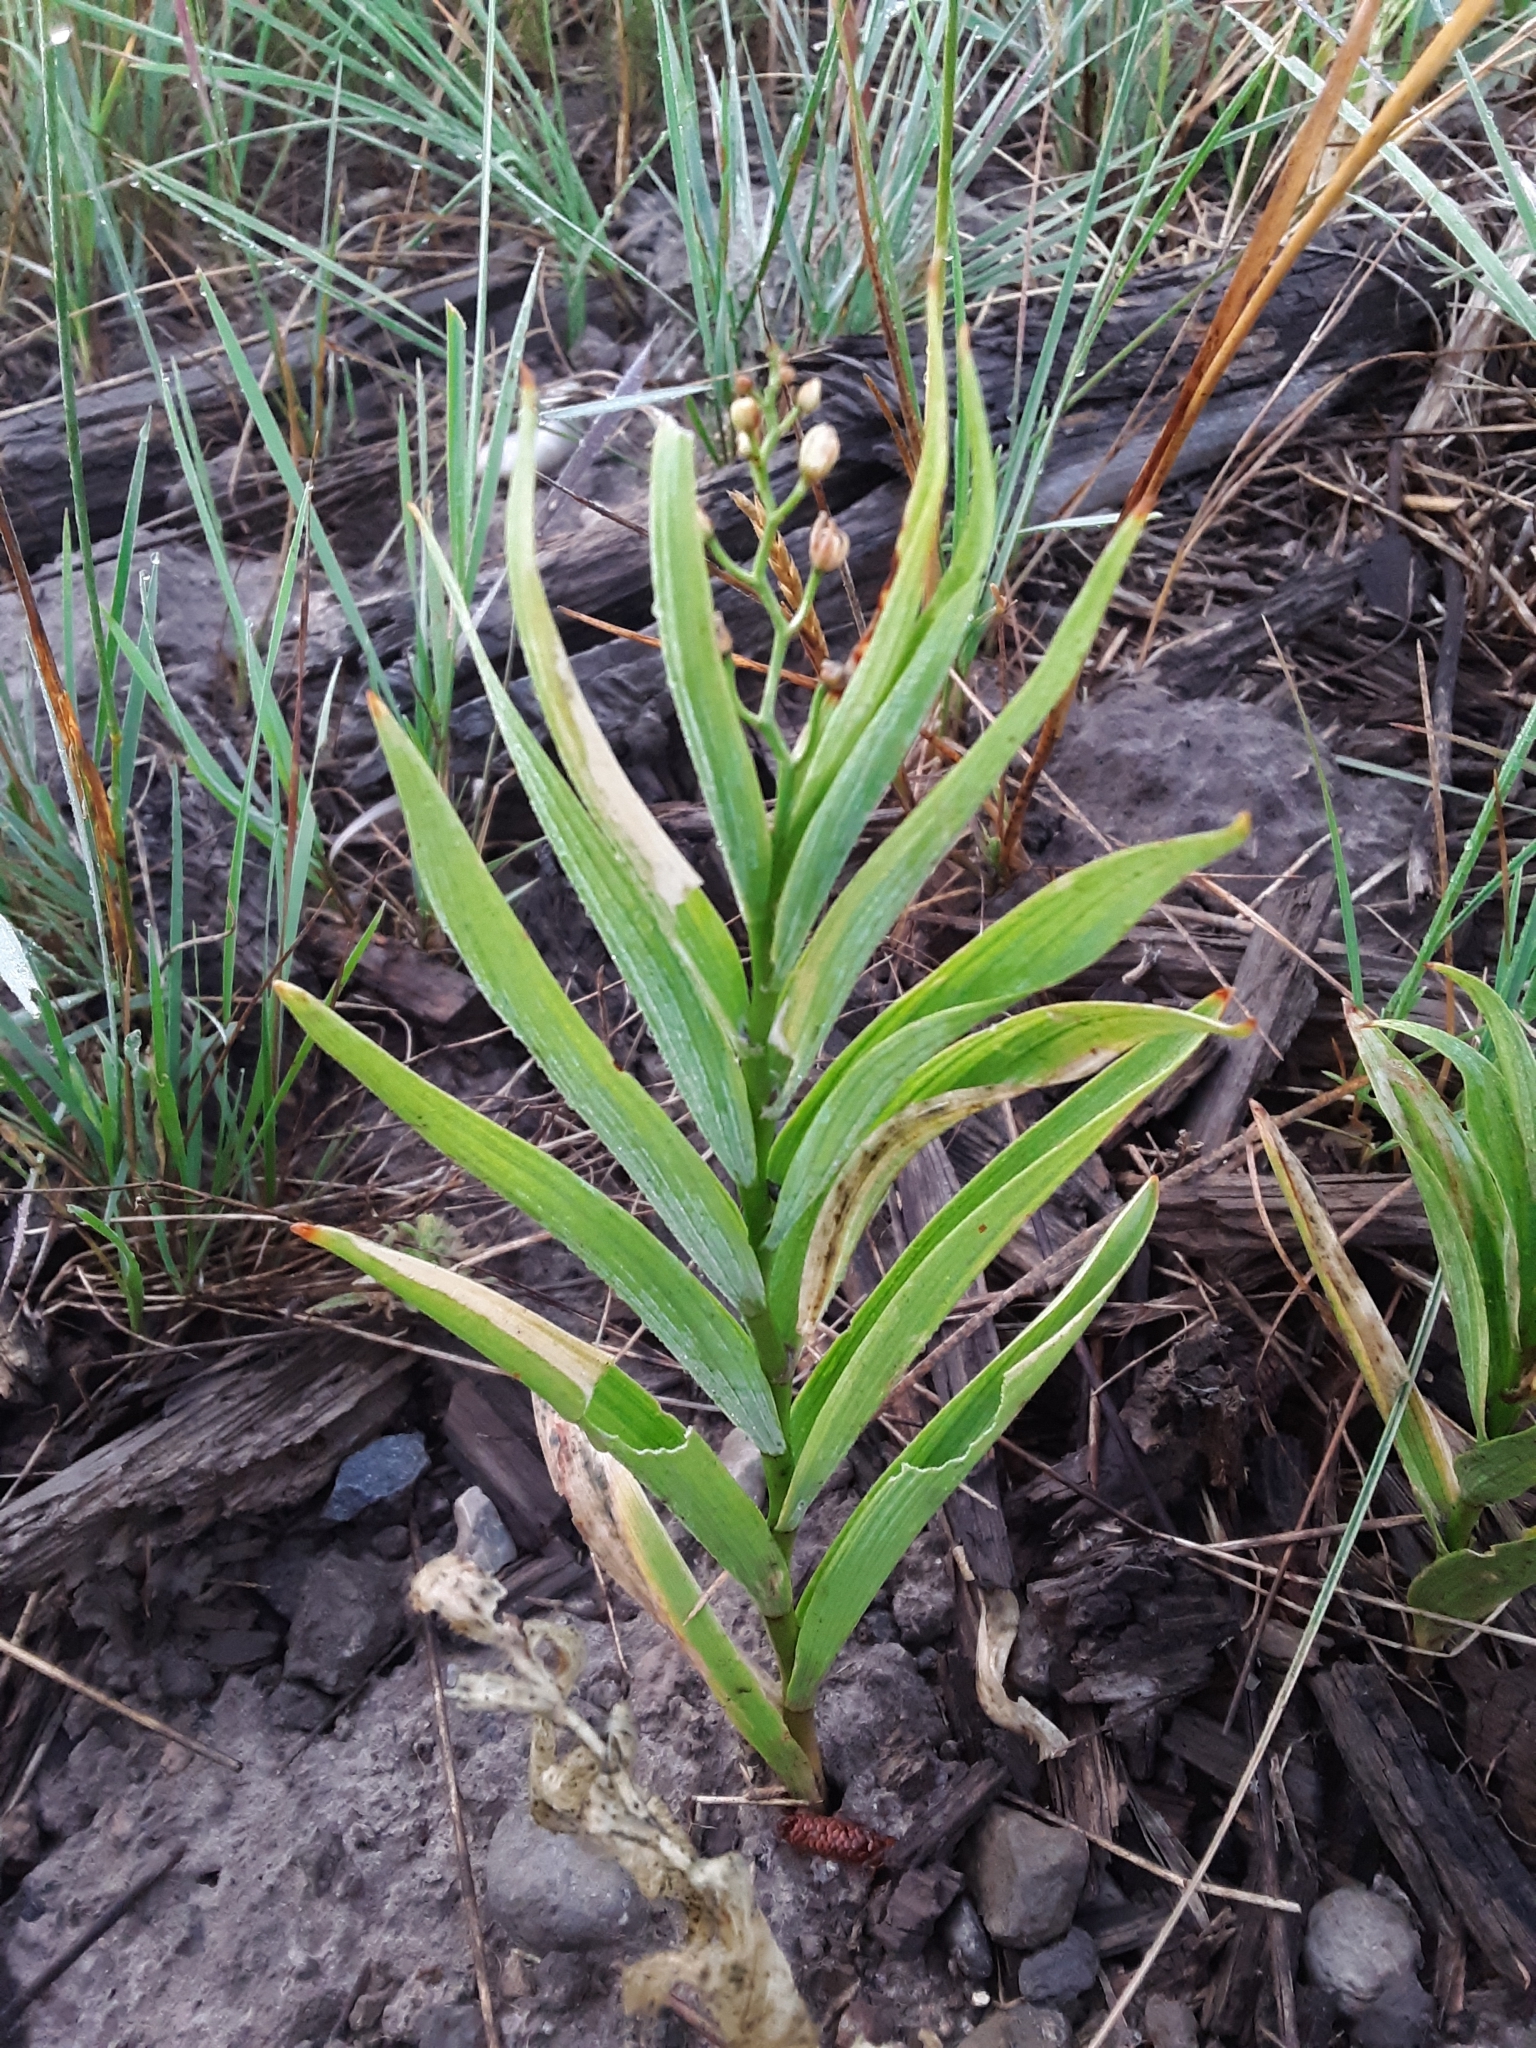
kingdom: Plantae
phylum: Tracheophyta
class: Liliopsida
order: Asparagales
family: Asparagaceae
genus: Maianthemum
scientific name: Maianthemum stellatum
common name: Little false solomon's seal
